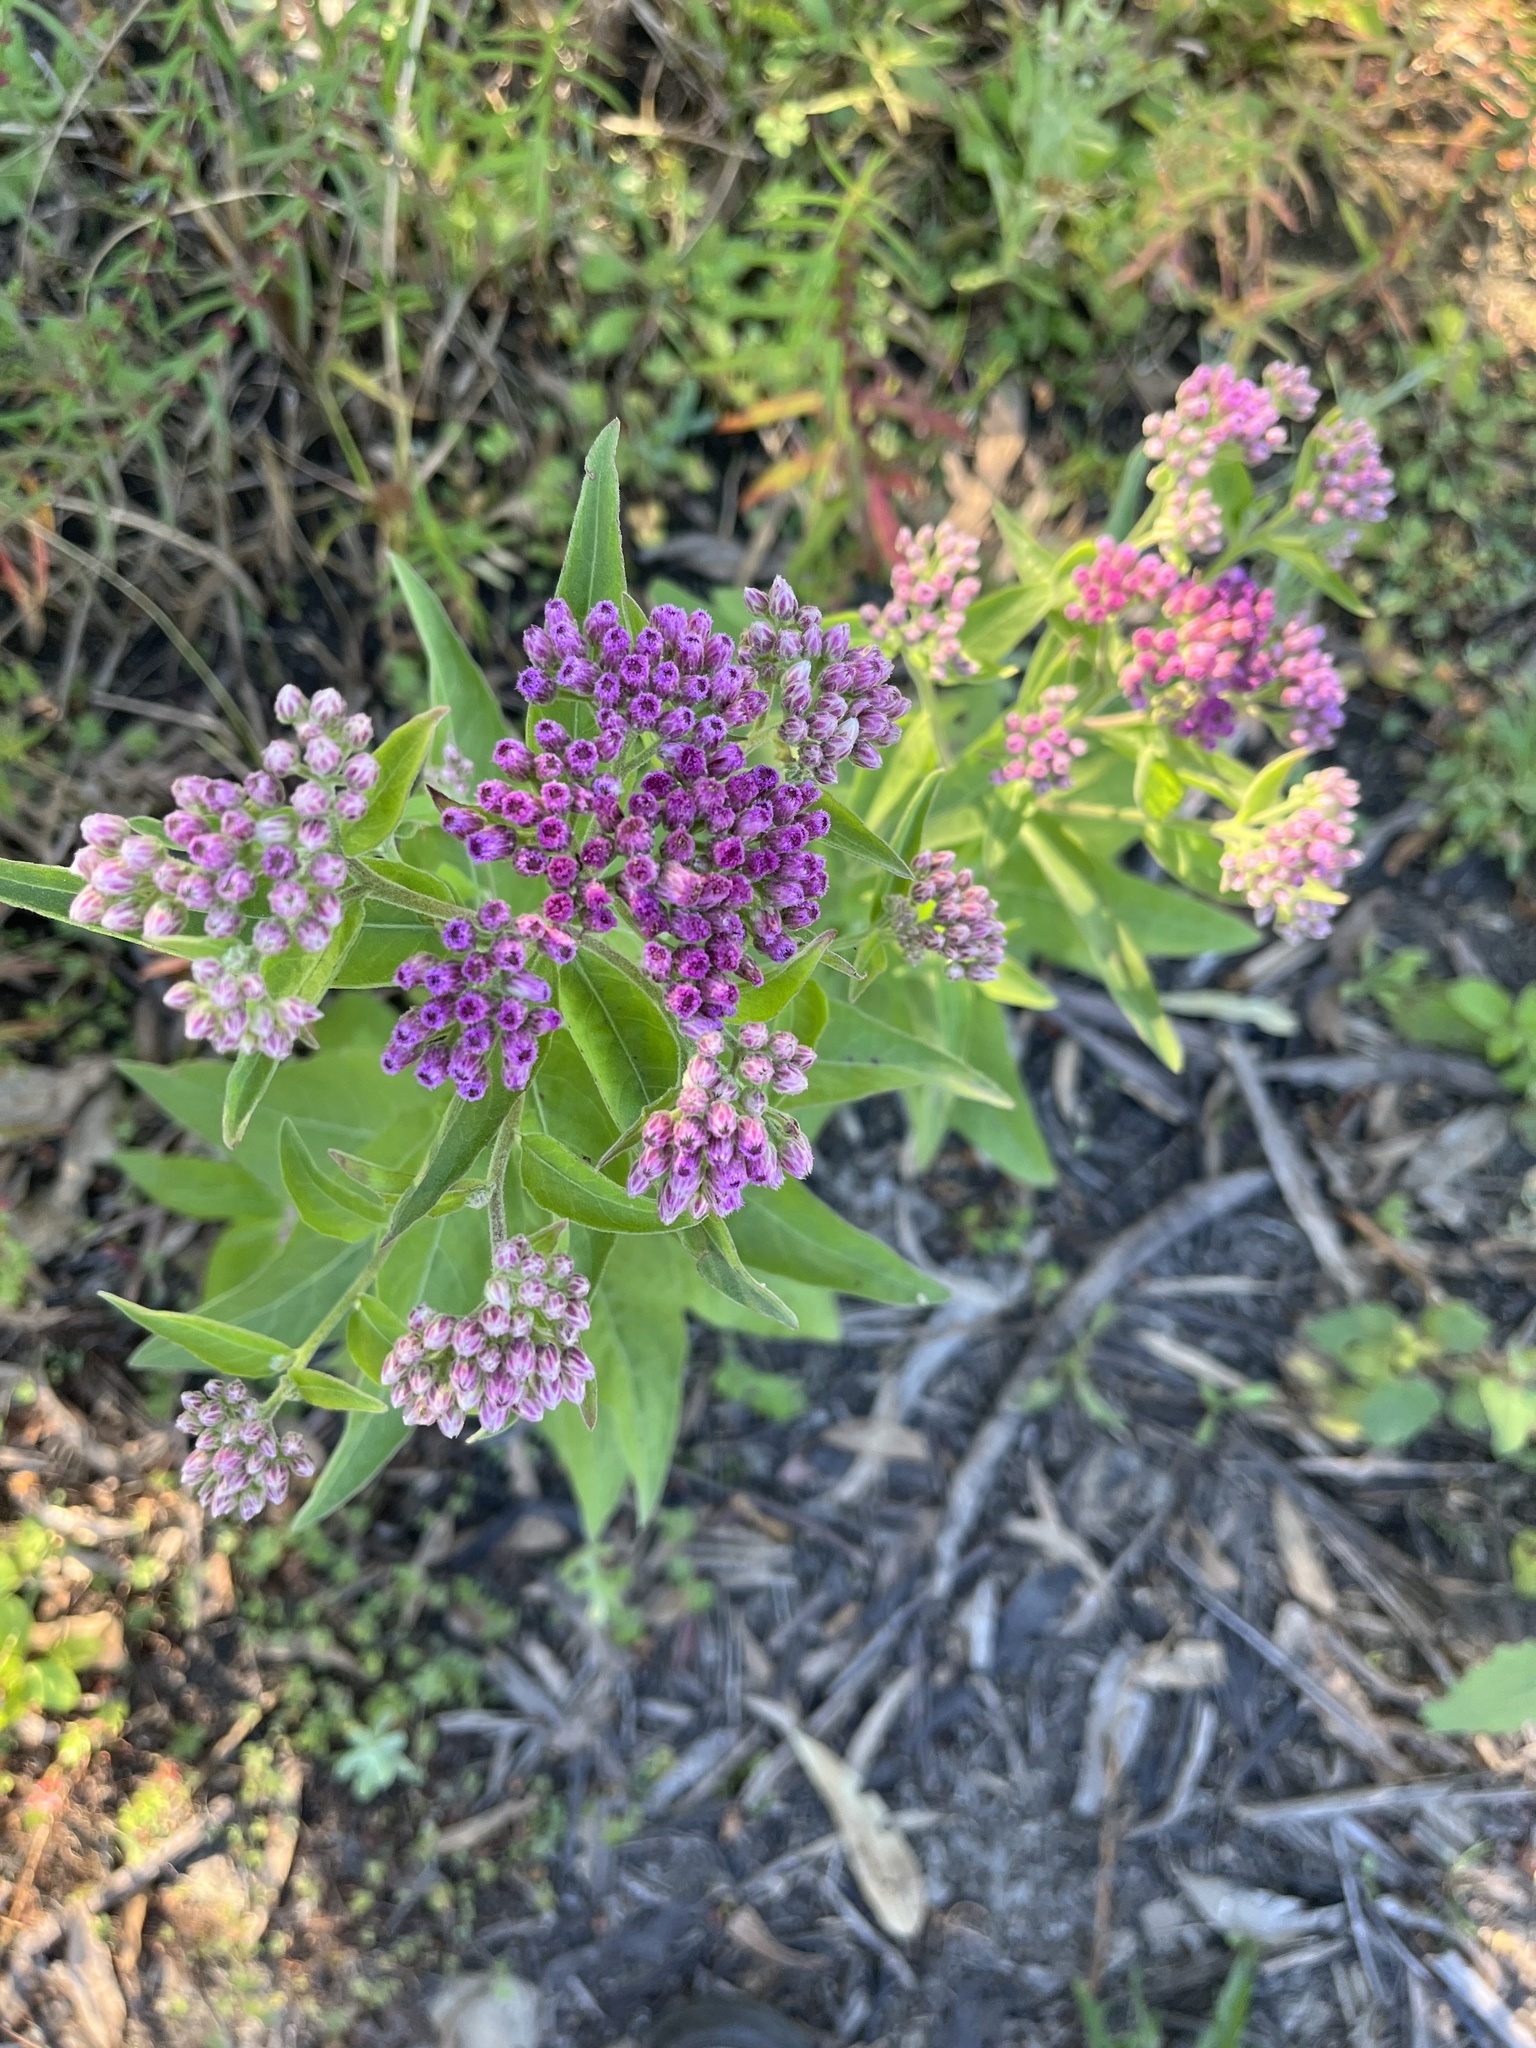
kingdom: Plantae
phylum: Tracheophyta
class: Magnoliopsida
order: Asterales
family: Asteraceae
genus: Pluchea
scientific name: Pluchea odorata
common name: Saltmarsh fleabane
